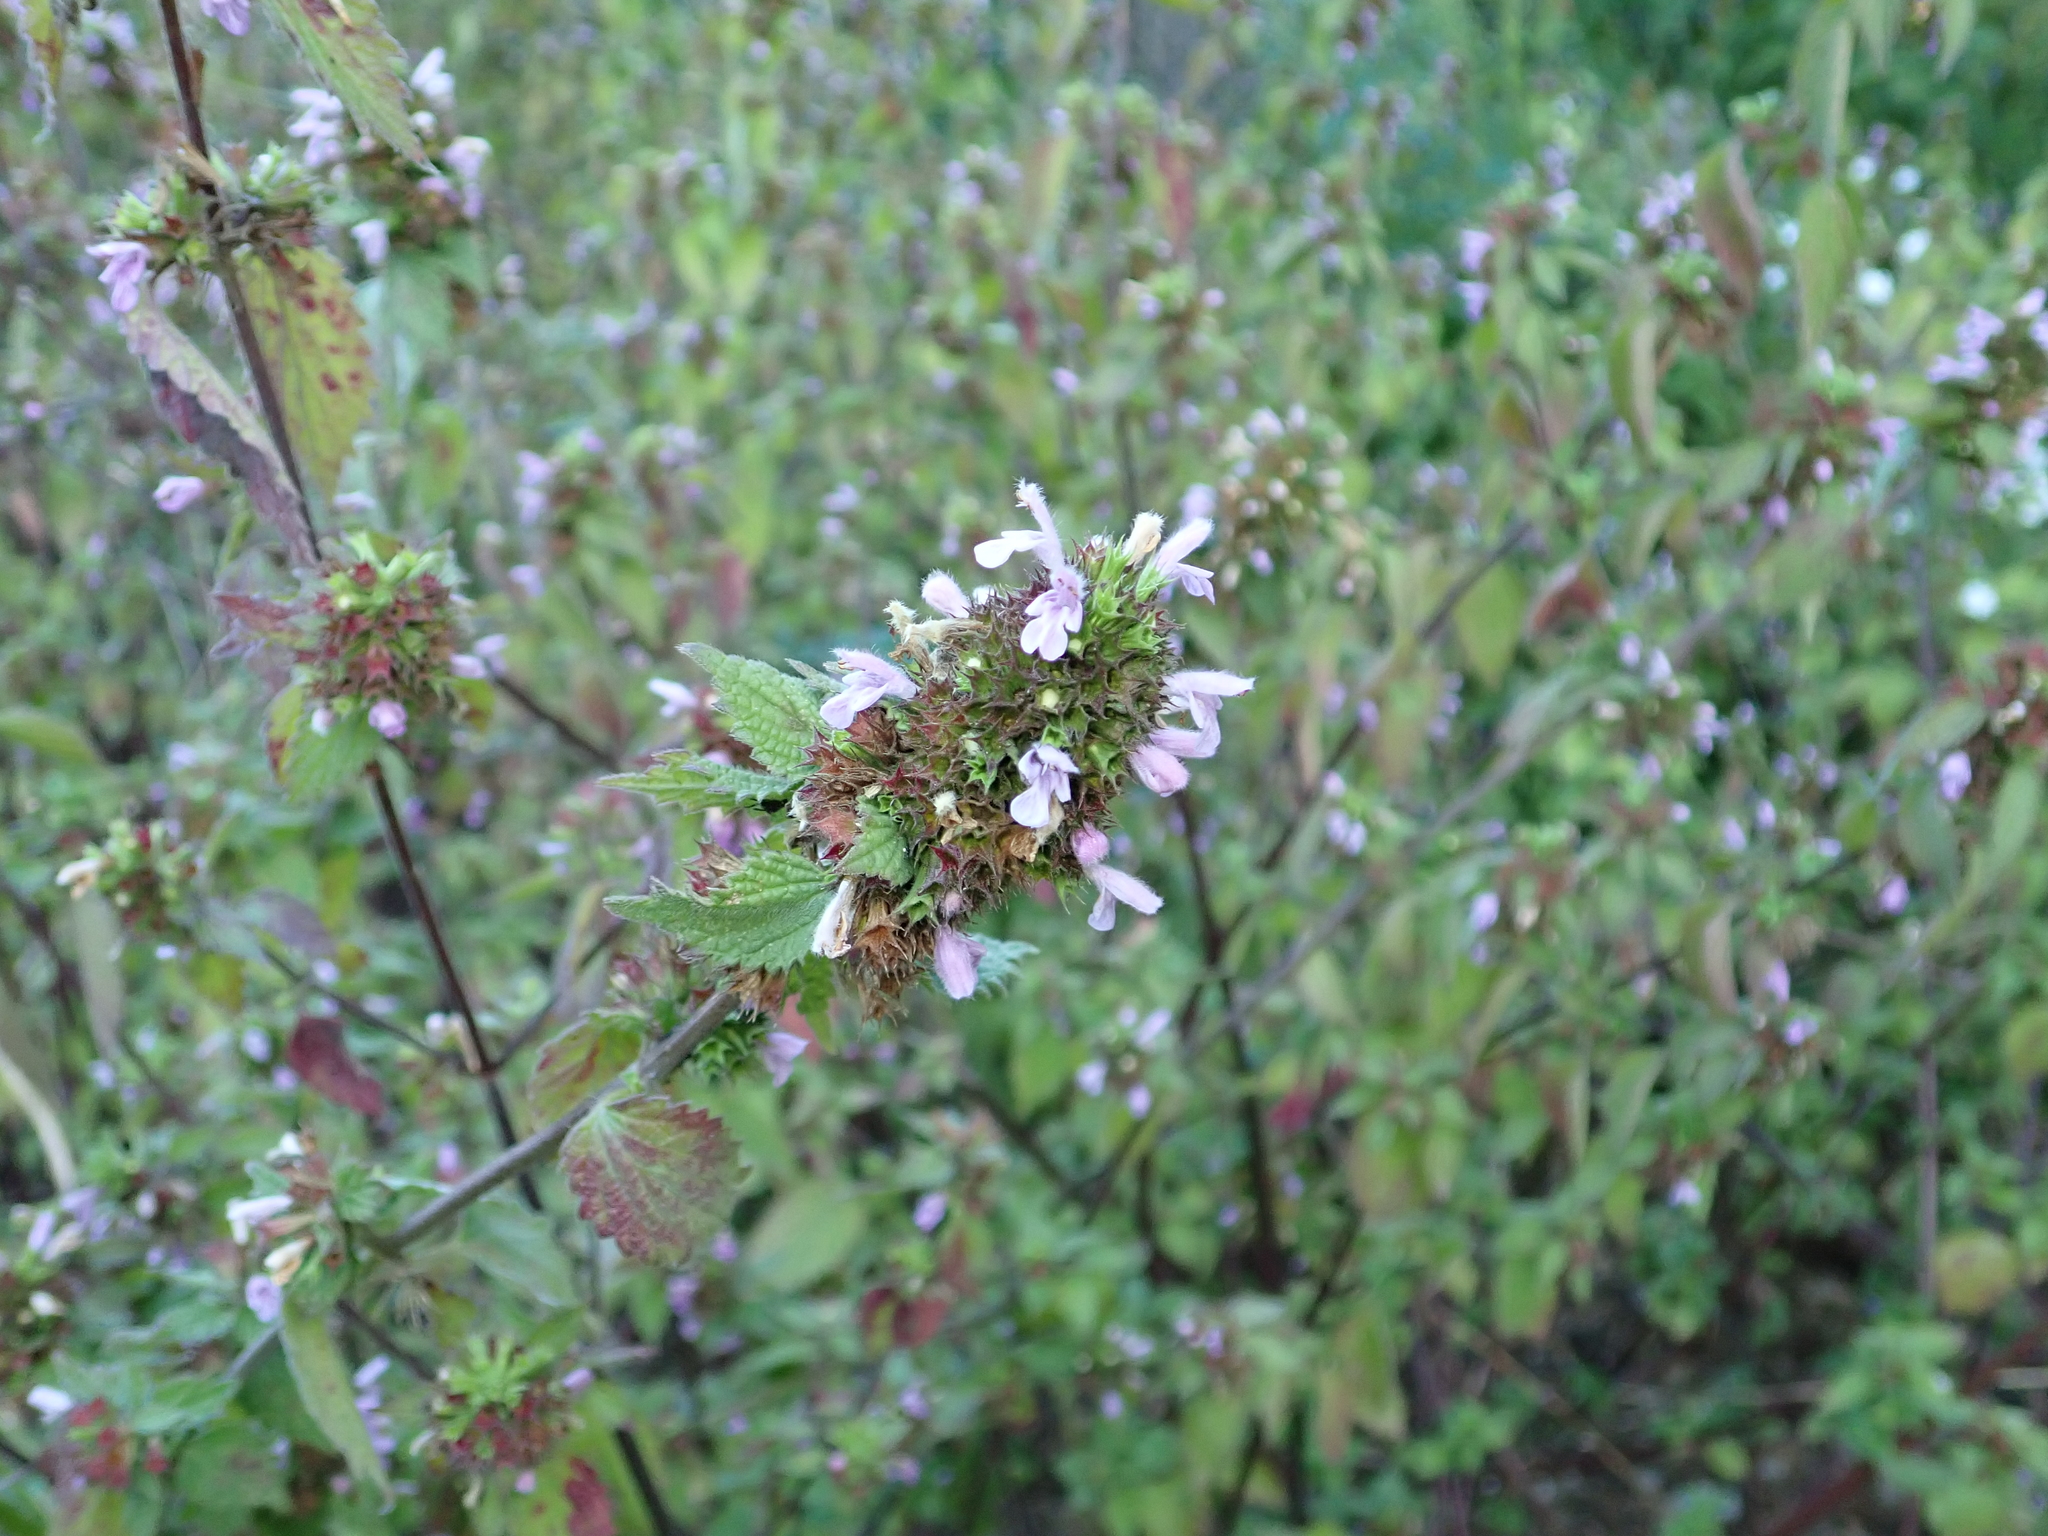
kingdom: Plantae
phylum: Tracheophyta
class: Magnoliopsida
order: Lamiales
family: Lamiaceae
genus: Ballota
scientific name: Ballota nigra
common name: Black horehound
